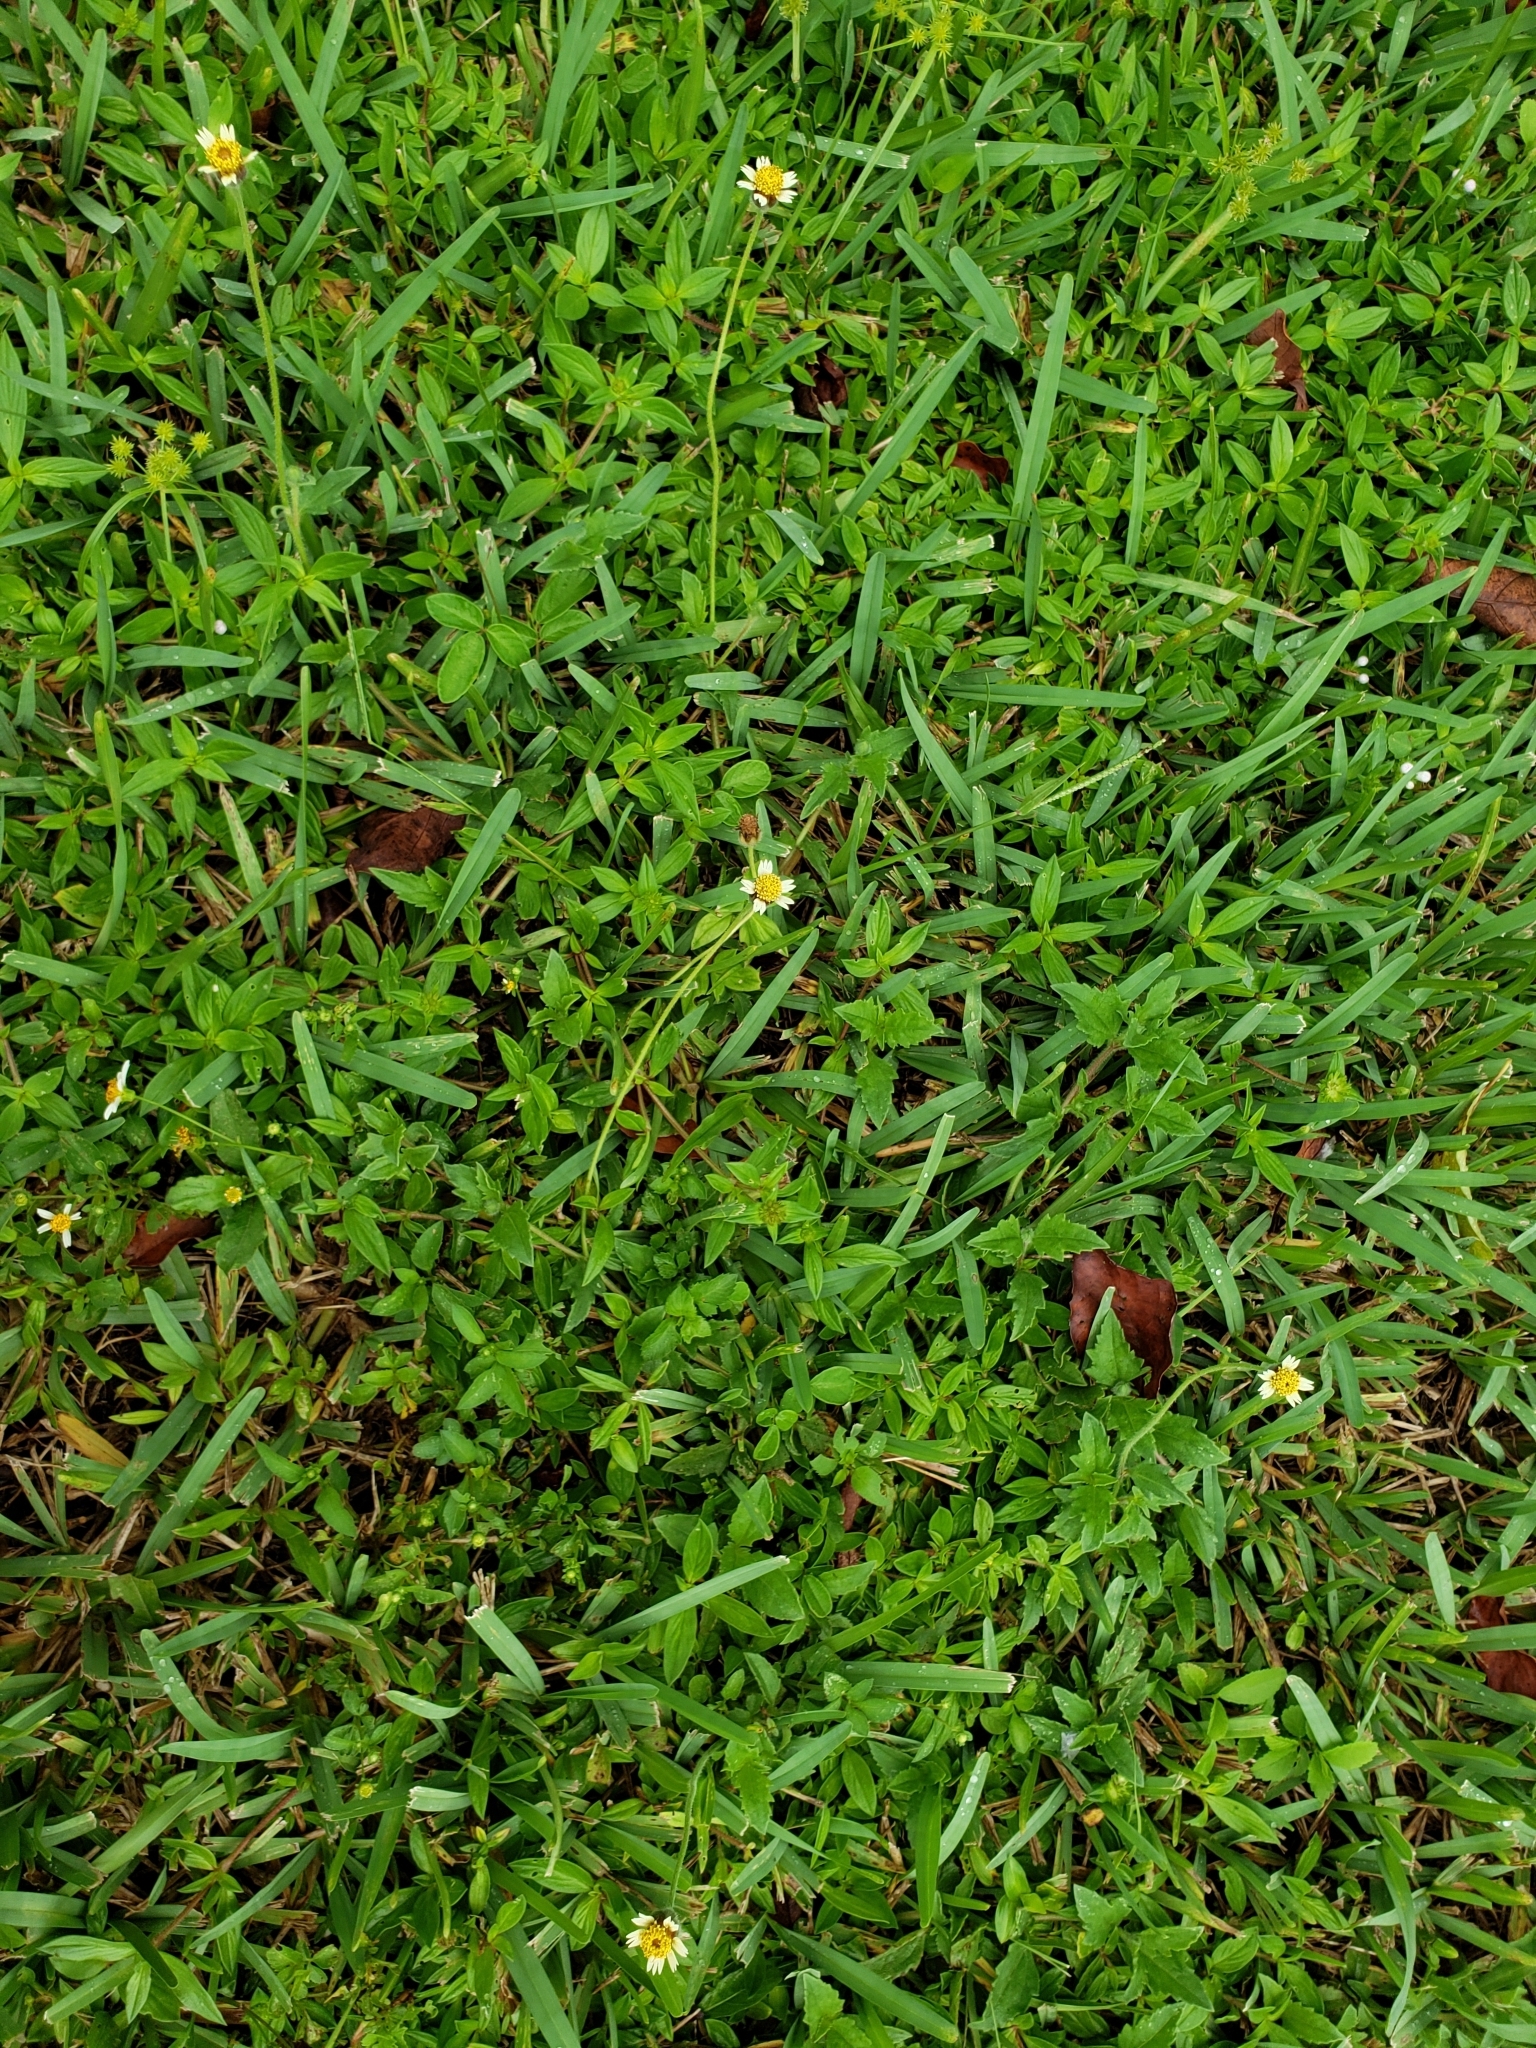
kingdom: Plantae
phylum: Tracheophyta
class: Magnoliopsida
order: Asterales
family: Asteraceae
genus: Tridax
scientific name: Tridax procumbens
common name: Coatbuttons
